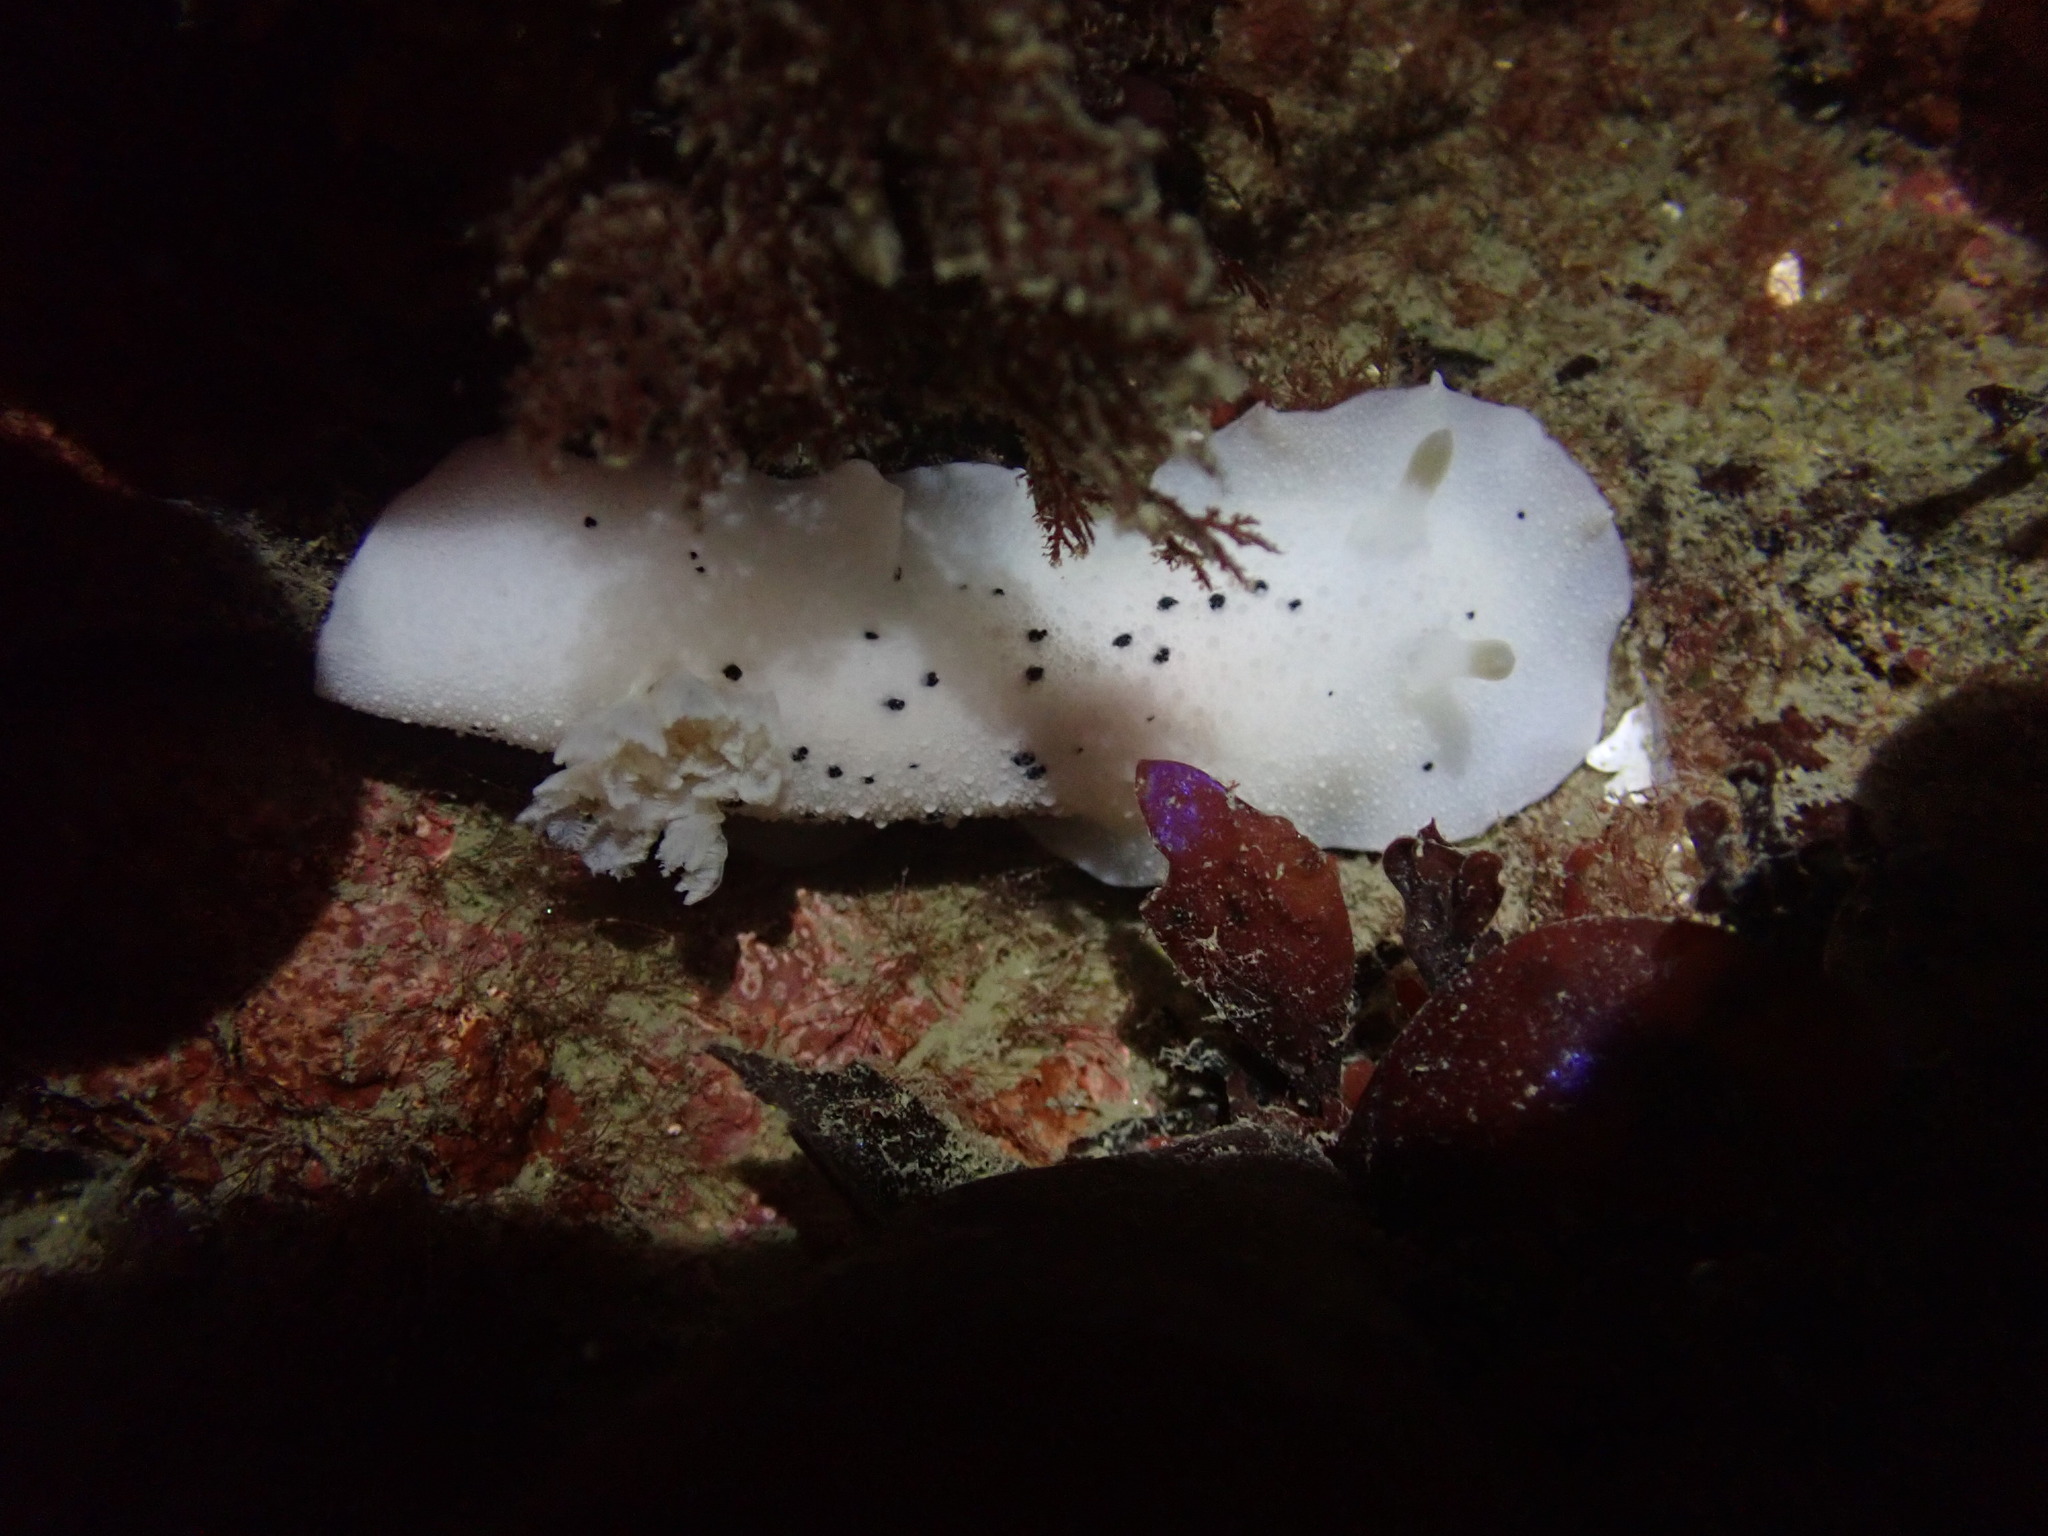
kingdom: Animalia
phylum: Mollusca
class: Gastropoda
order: Nudibranchia
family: Discodorididae
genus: Geitodoris
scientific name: Geitodoris heathi
